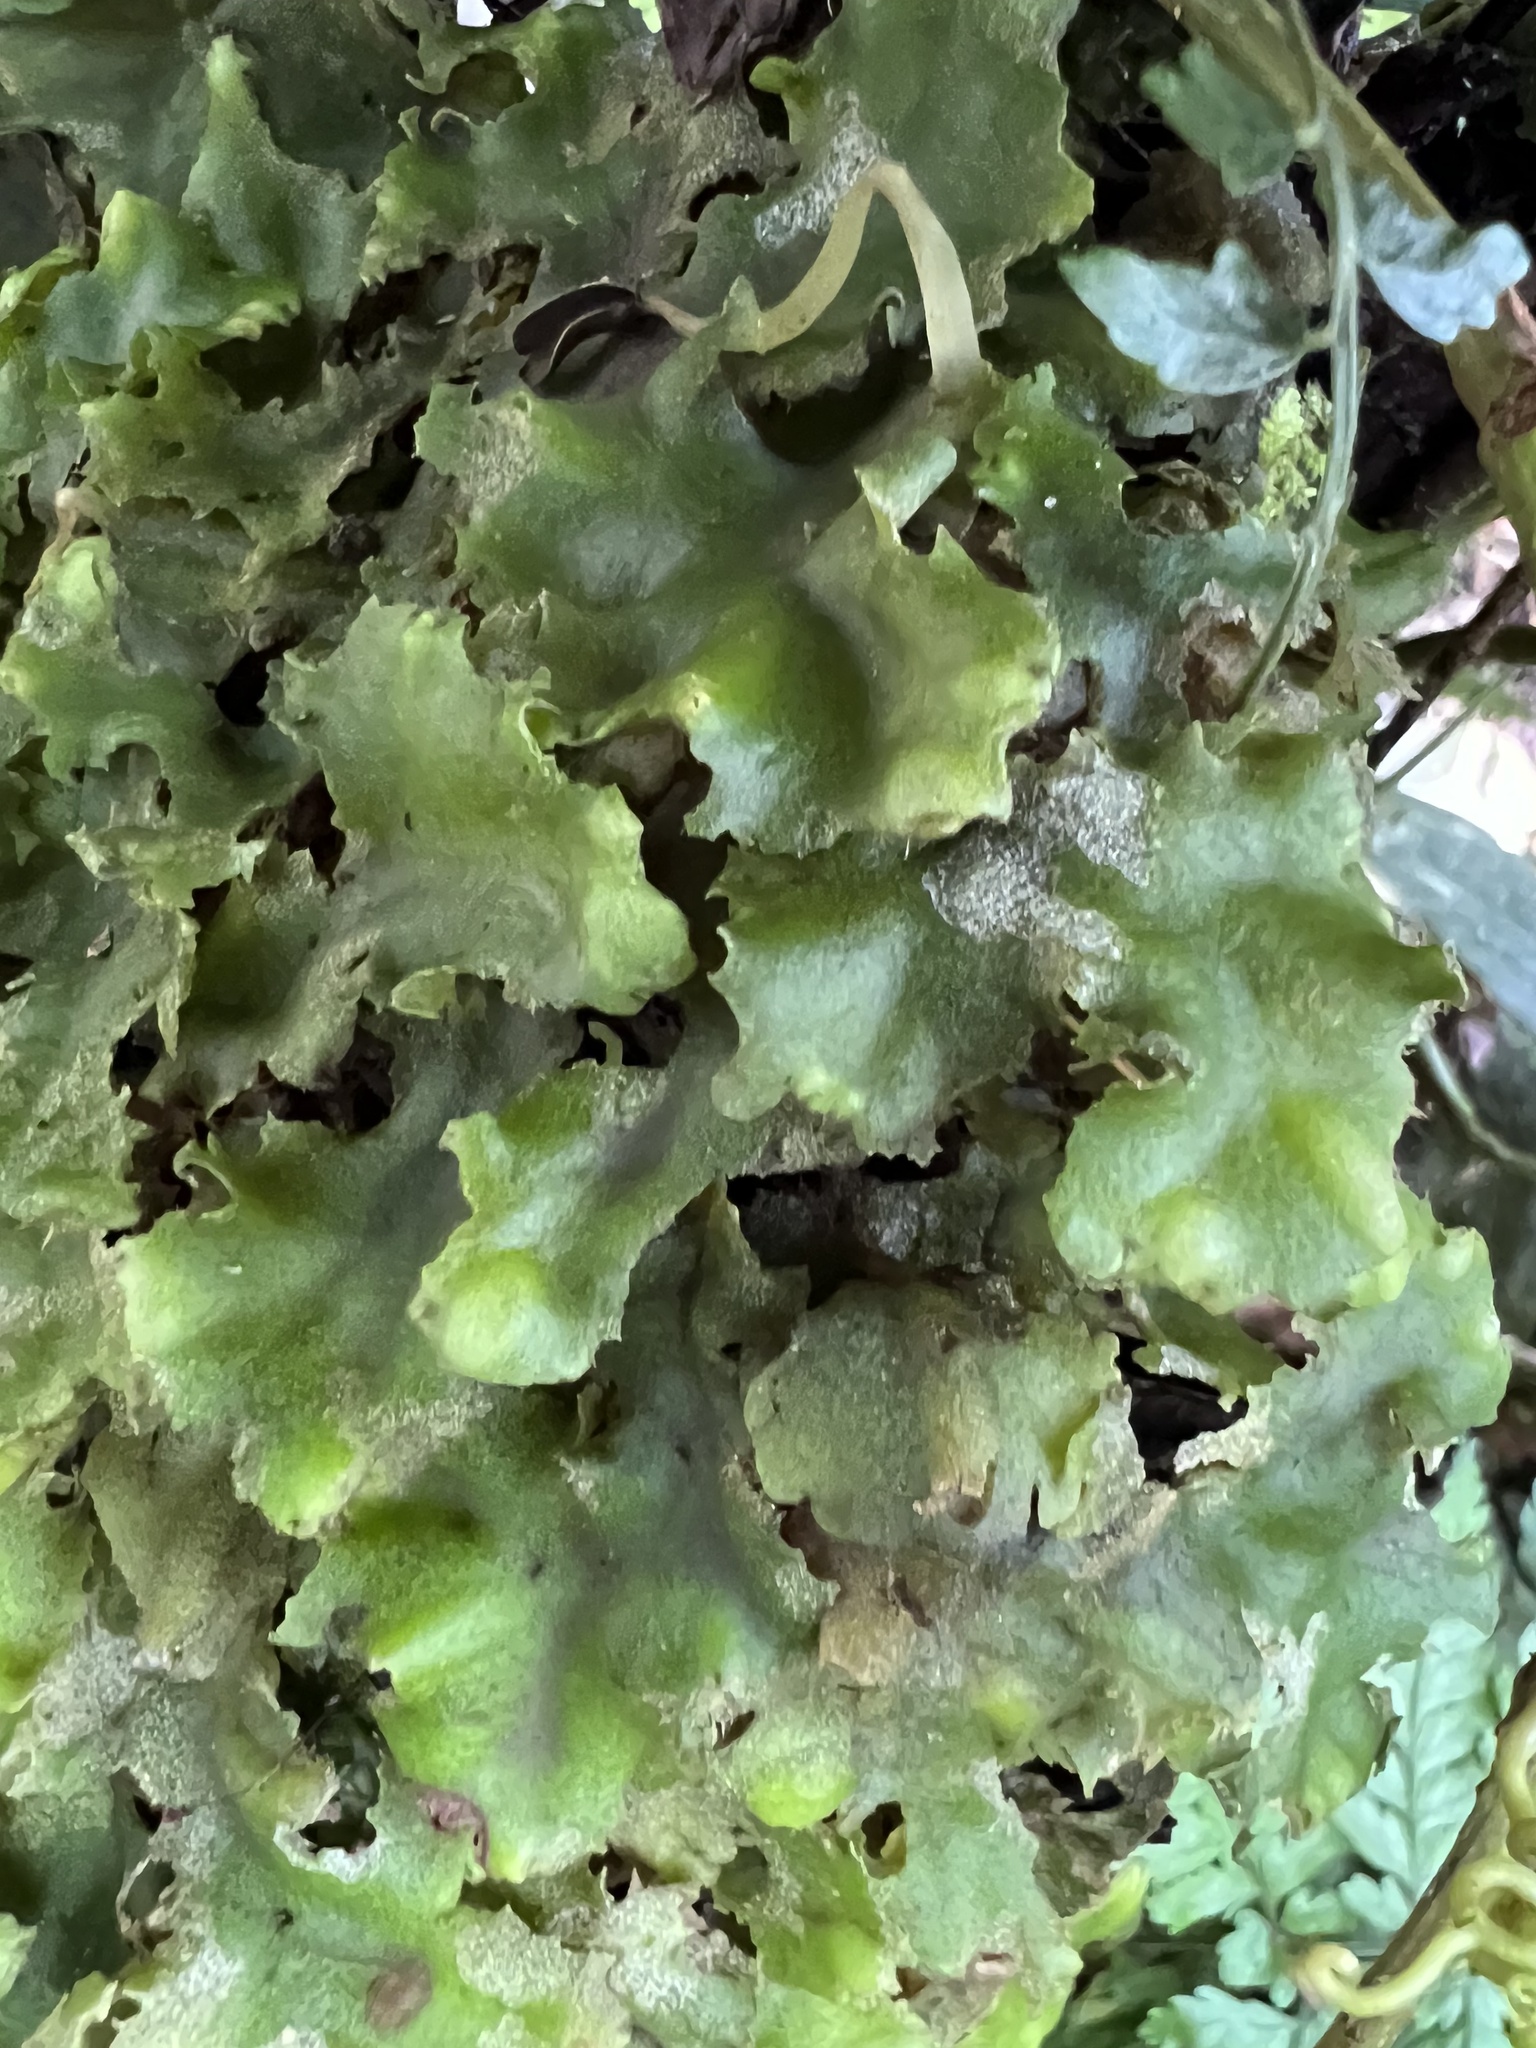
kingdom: Plantae
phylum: Marchantiophyta
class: Marchantiopsida
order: Marchantiales
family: Monocleaceae
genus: Monoclea
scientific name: Monoclea gottschei
